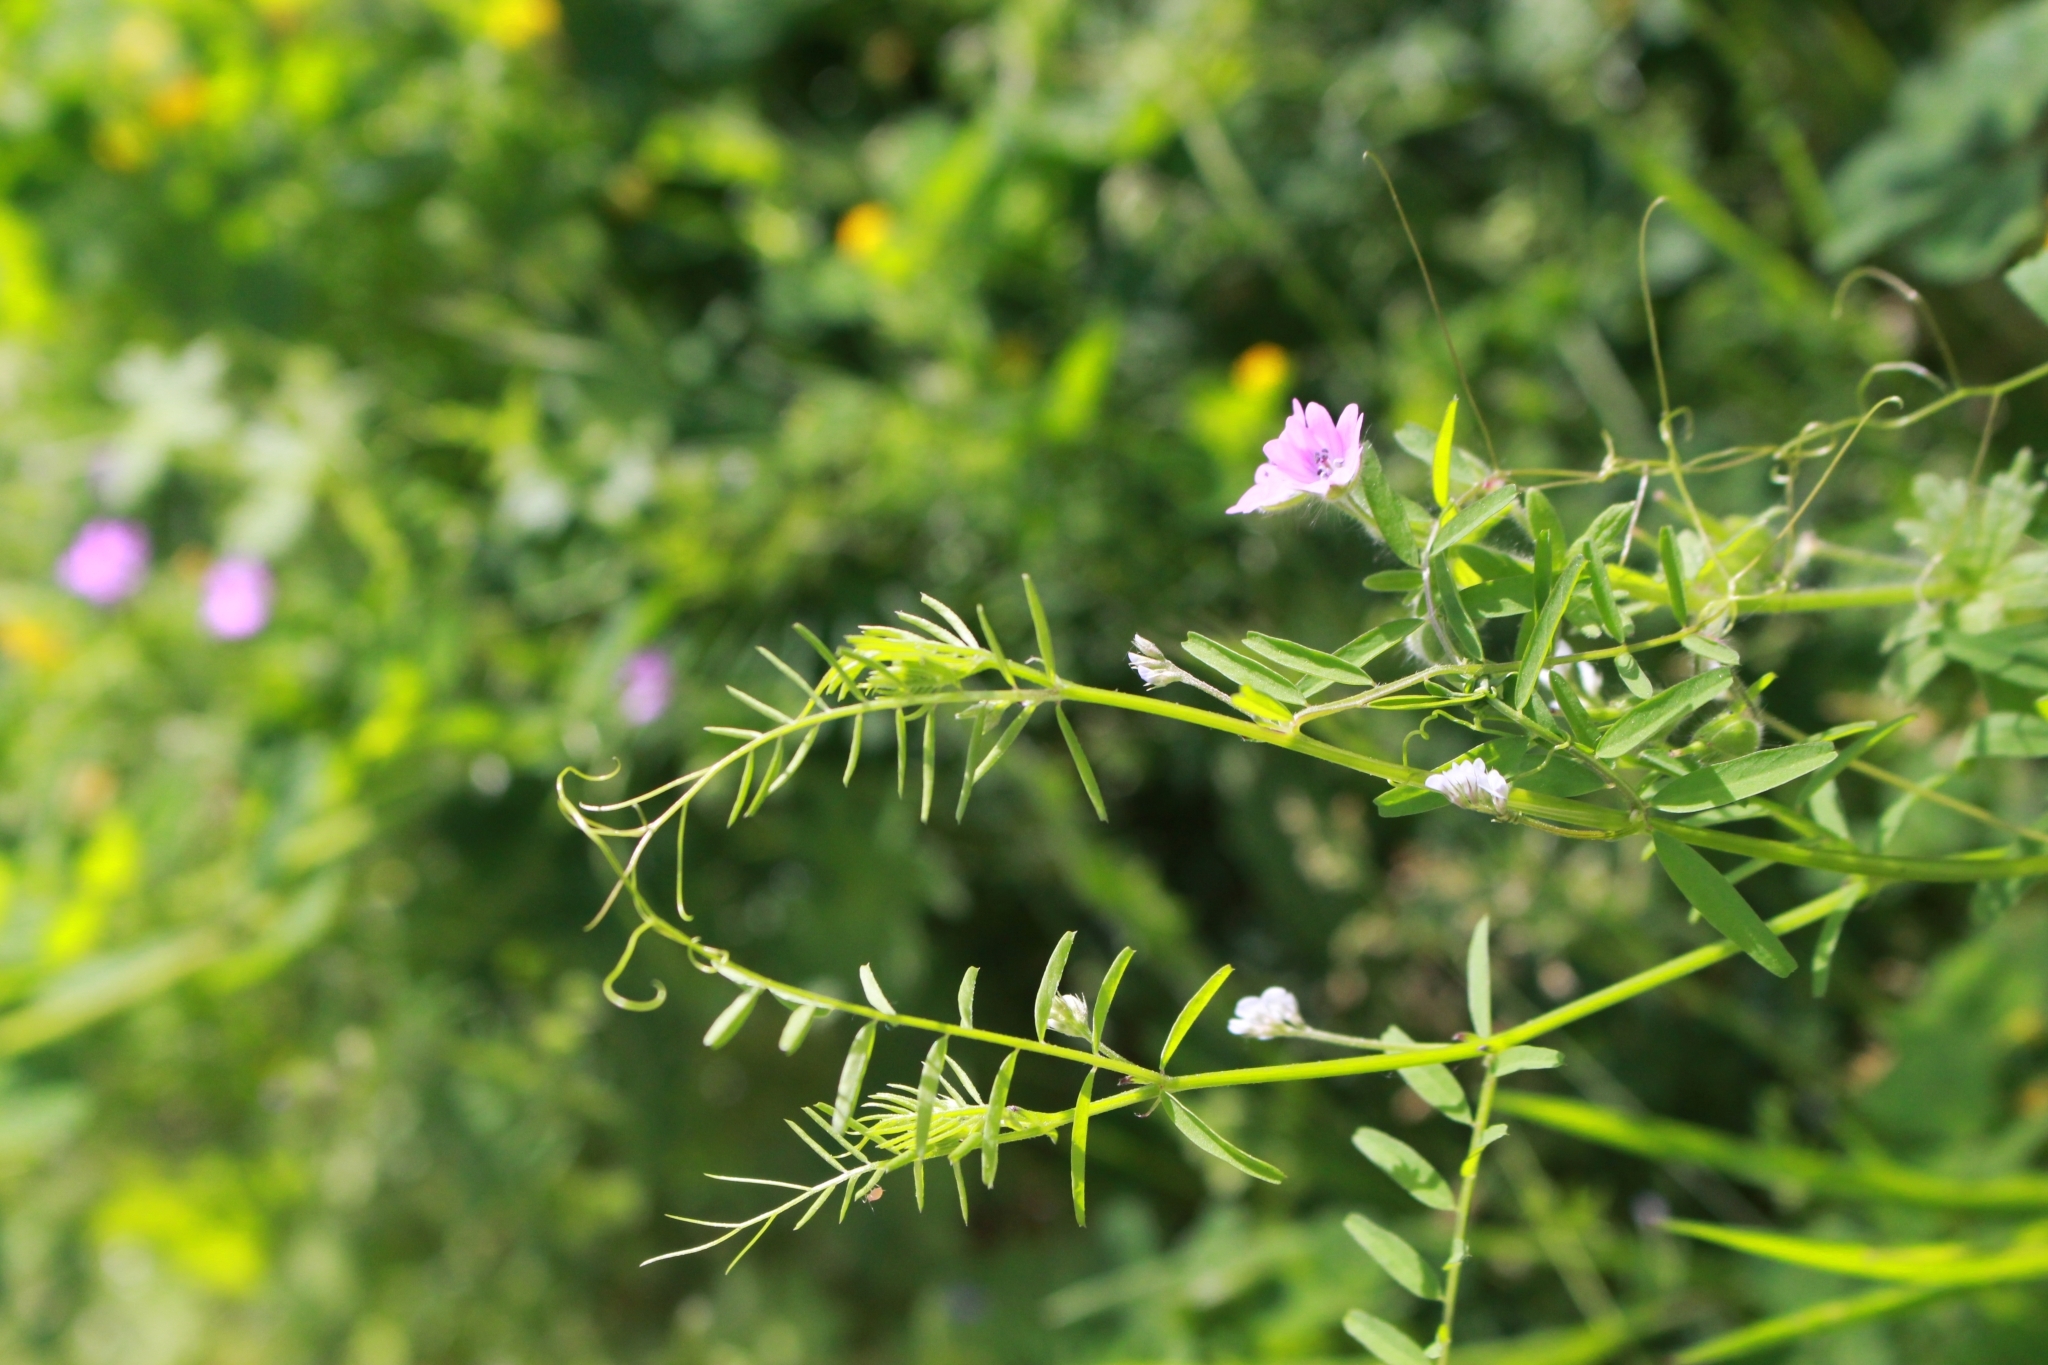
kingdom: Plantae
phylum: Tracheophyta
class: Magnoliopsida
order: Fabales
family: Fabaceae
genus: Vicia
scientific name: Vicia hirsuta
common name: Tiny vetch
